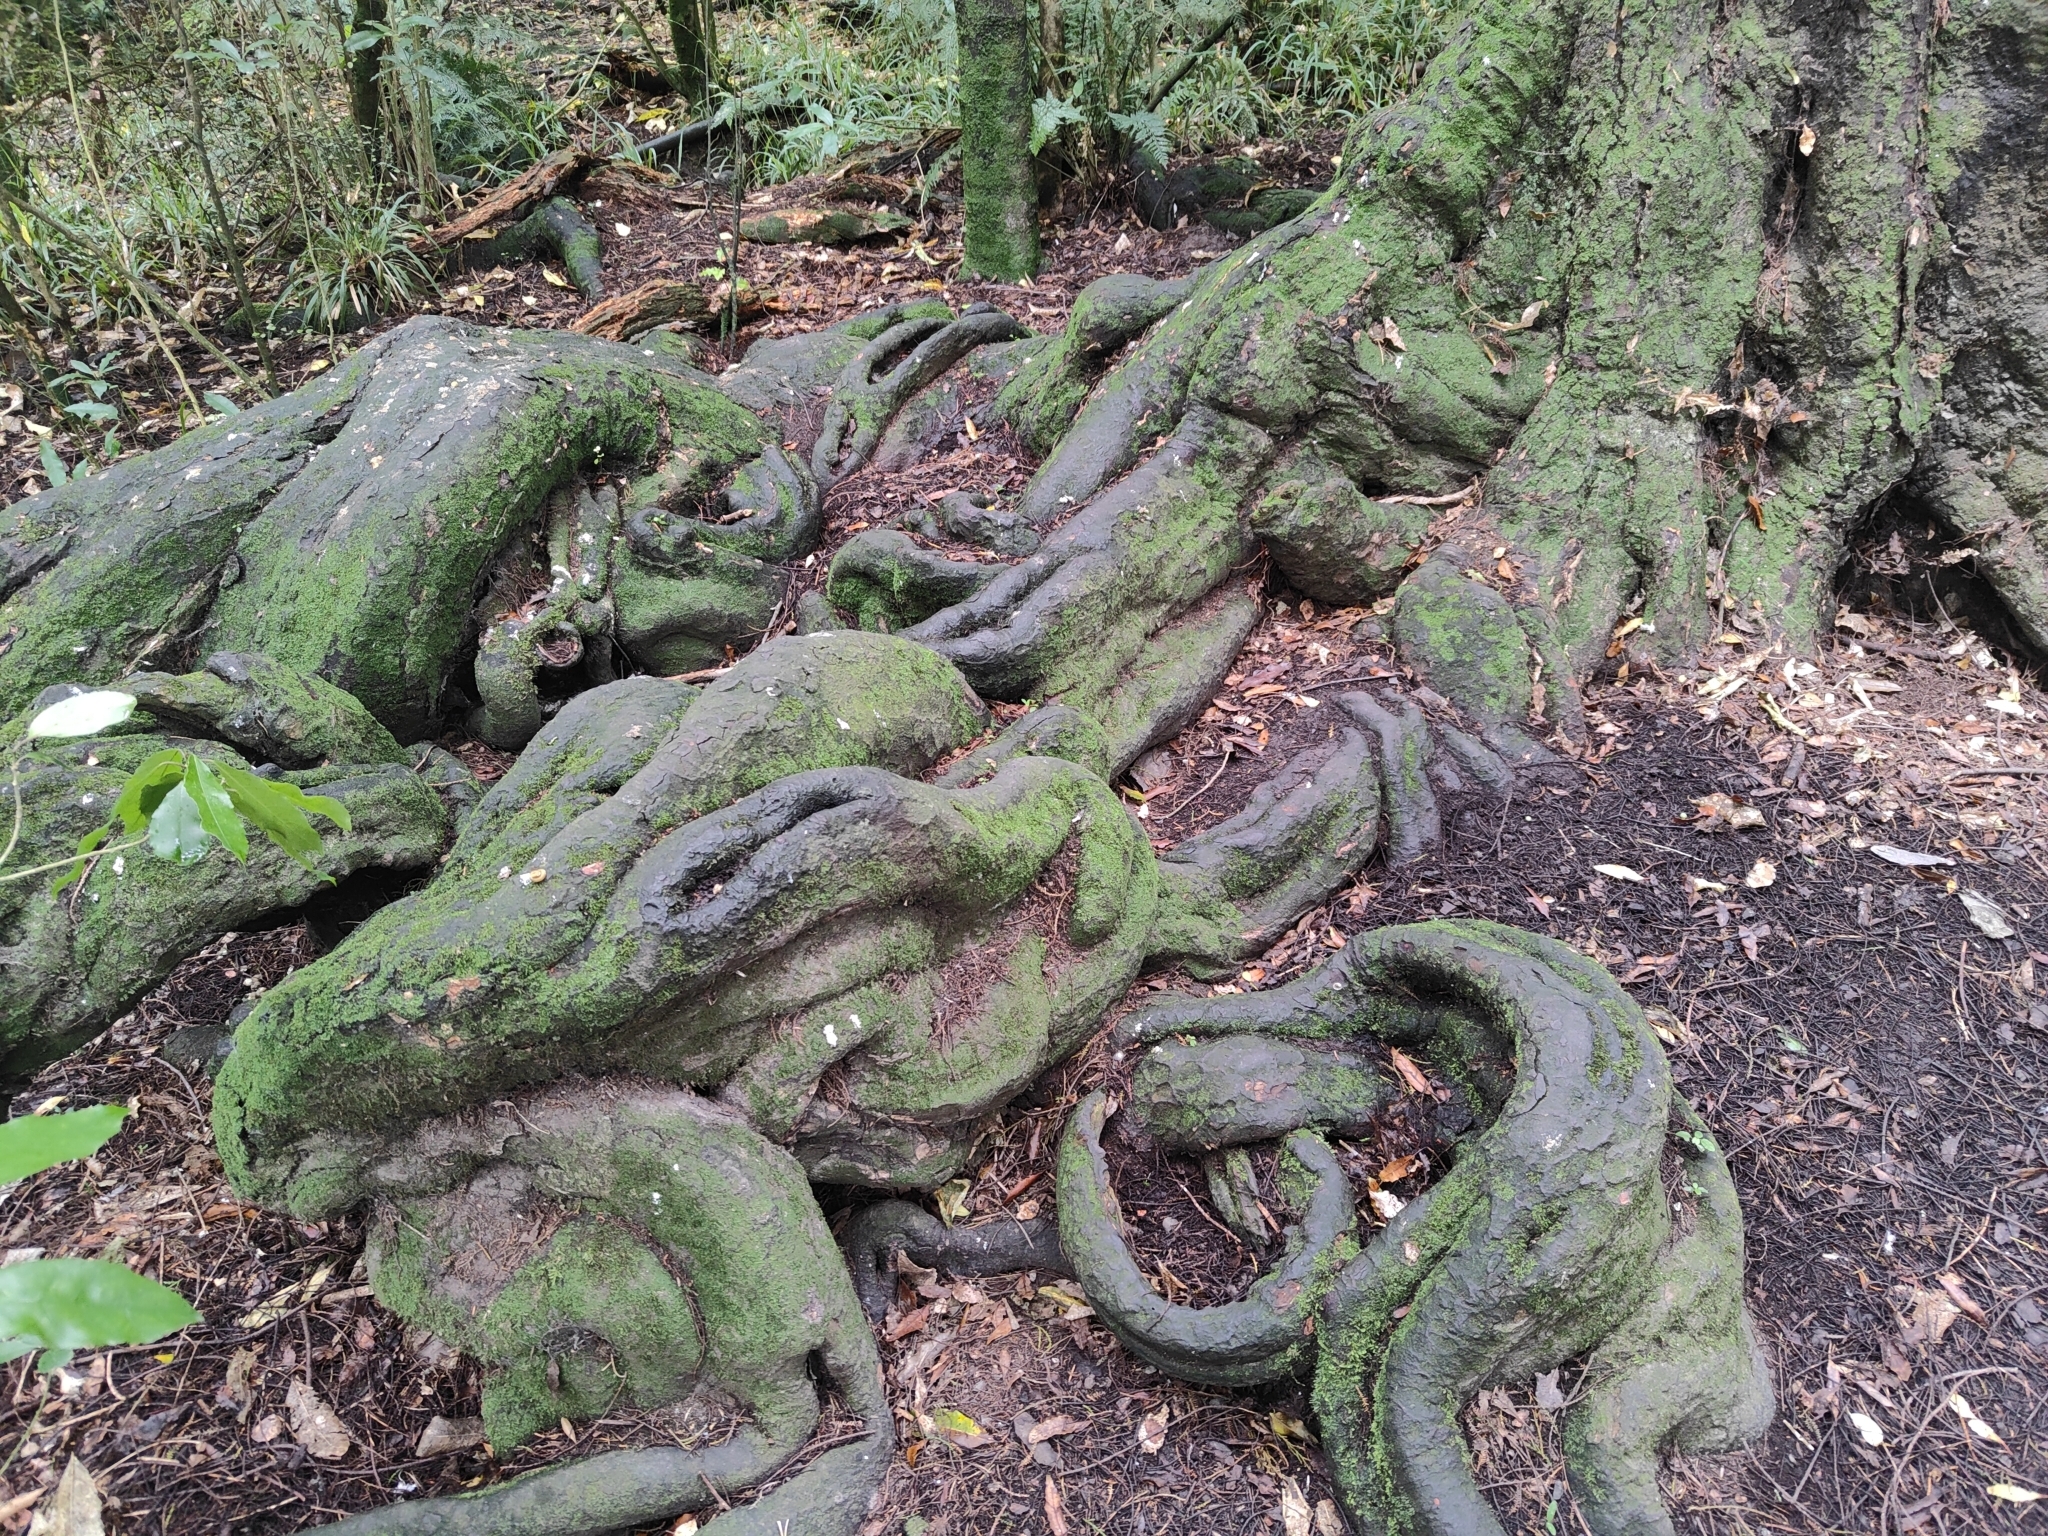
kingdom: Plantae
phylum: Tracheophyta
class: Pinopsida
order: Pinales
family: Podocarpaceae
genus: Dacrycarpus
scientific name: Dacrycarpus dacrydioides
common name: White pine
